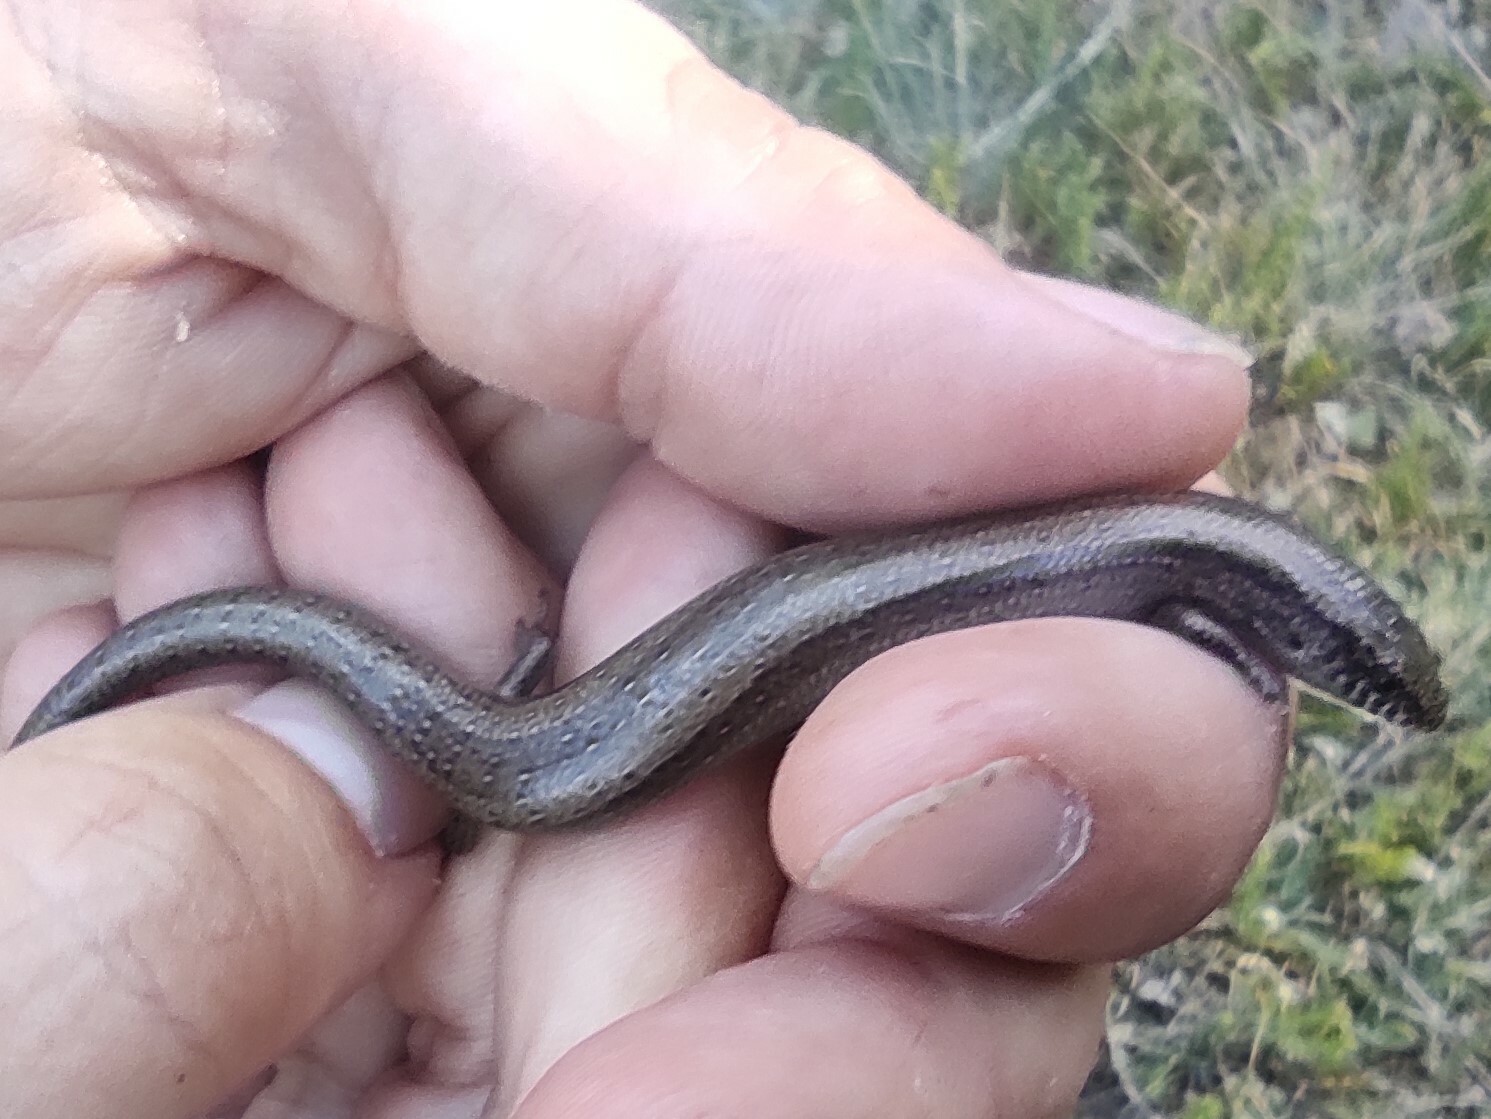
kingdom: Animalia
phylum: Chordata
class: Squamata
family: Scincidae
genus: Chalcides
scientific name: Chalcides bedriagai
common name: Spanish cylindrical skink
